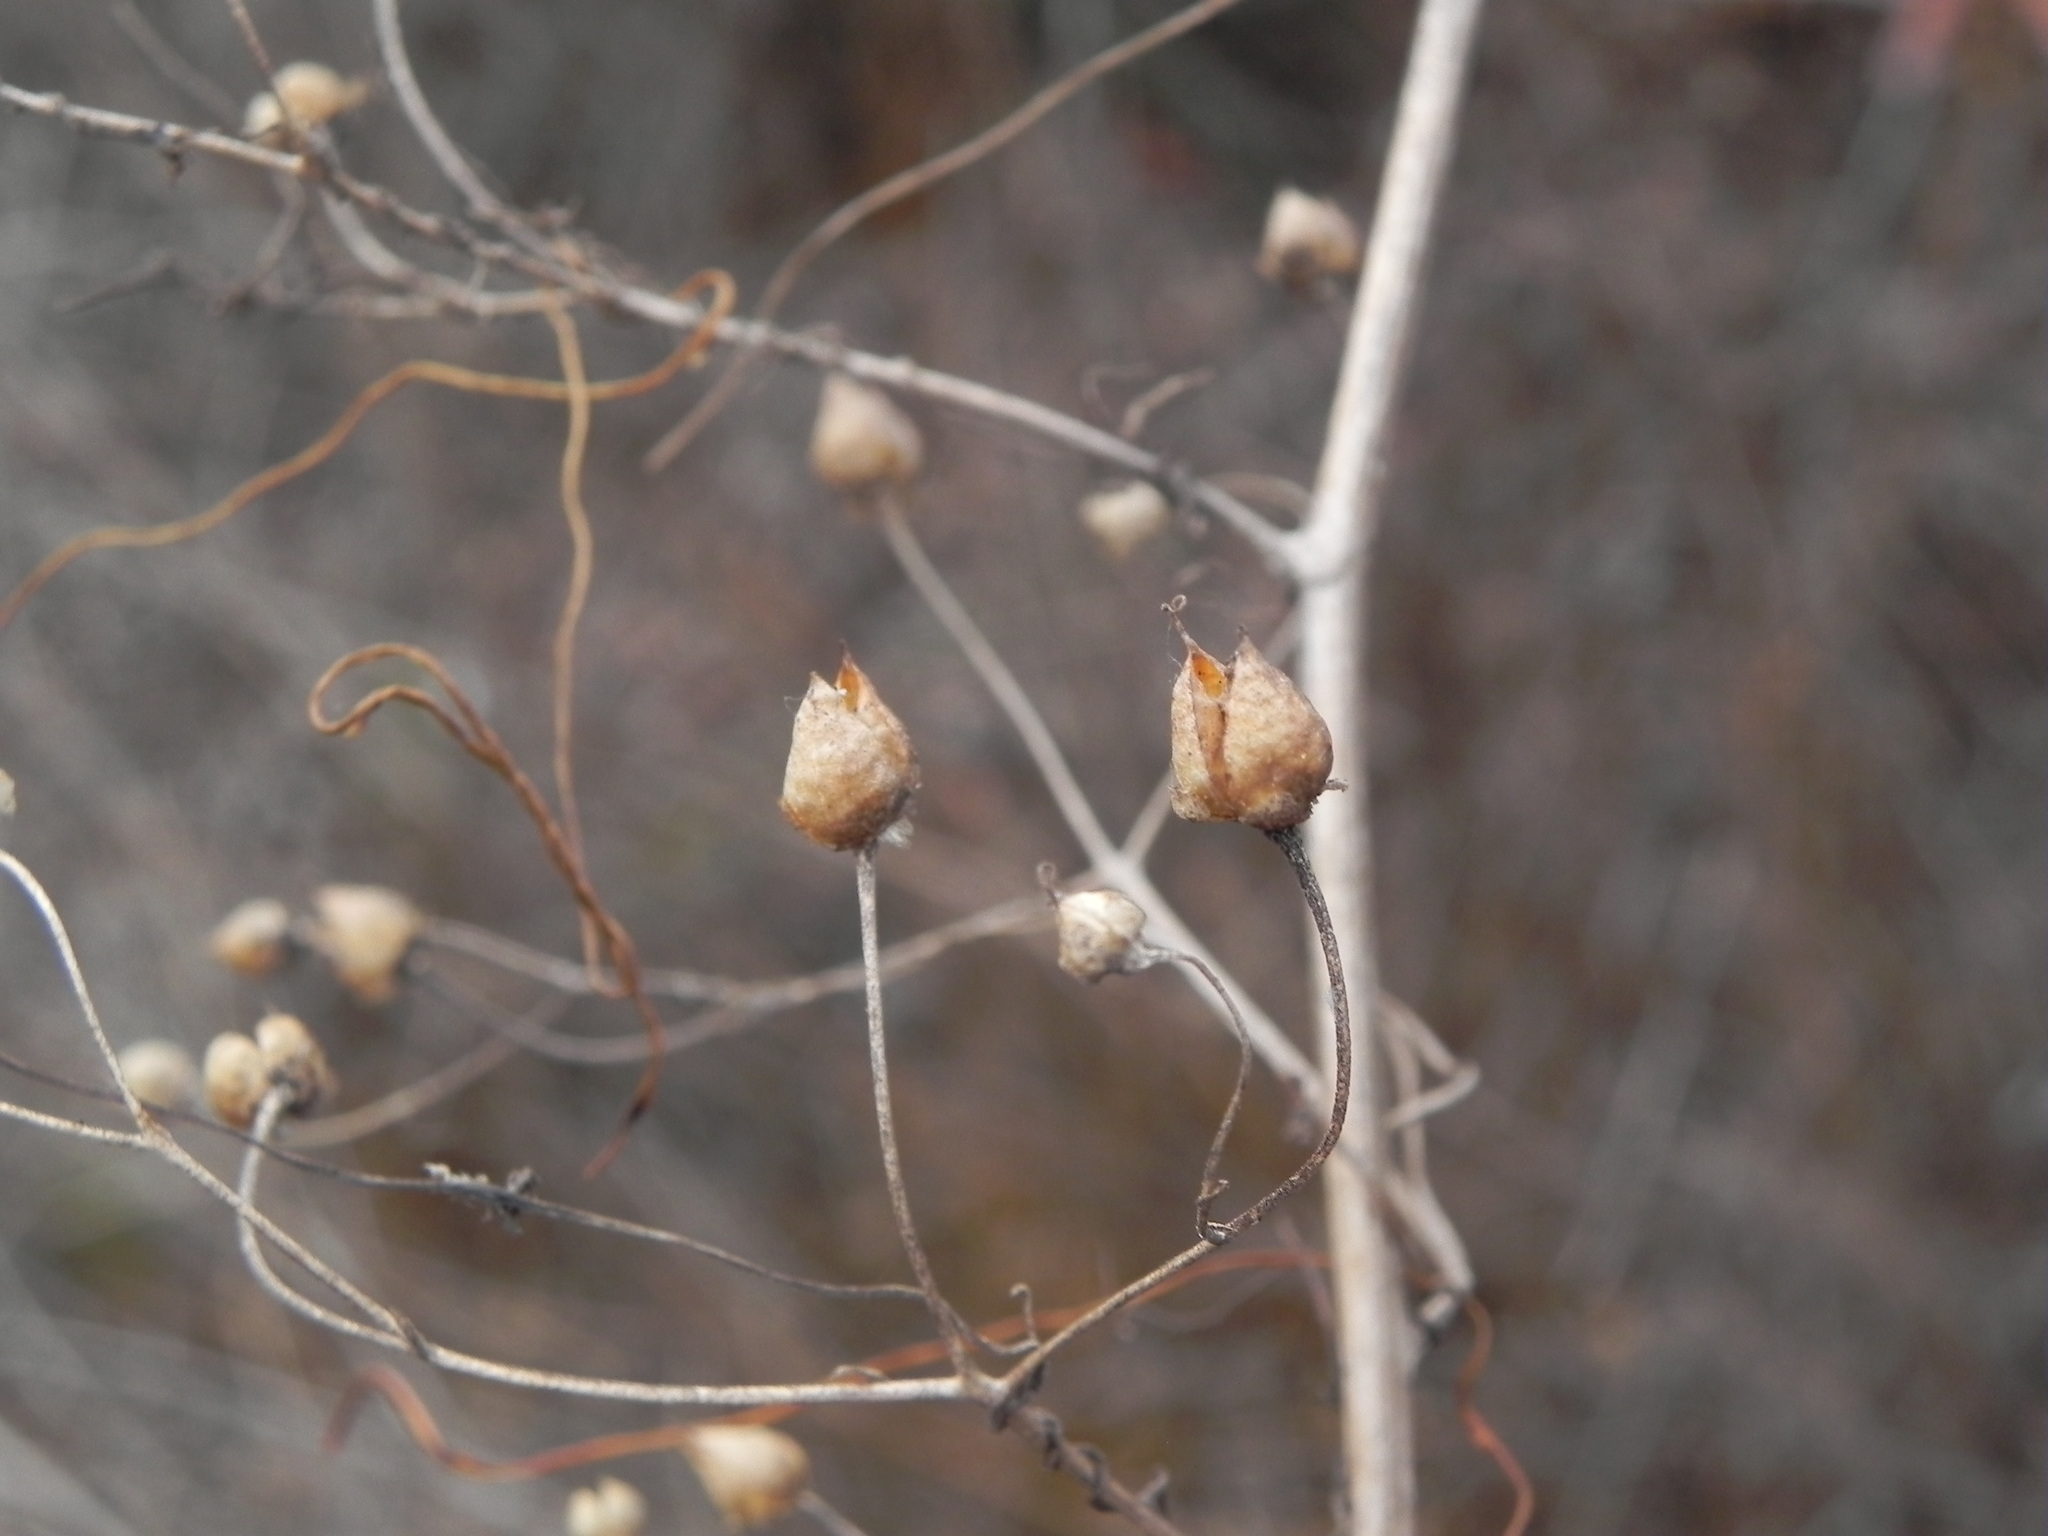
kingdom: Plantae
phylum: Tracheophyta
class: Magnoliopsida
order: Lamiales
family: Scrophulariaceae
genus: Scrophularia
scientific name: Scrophularia californica
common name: California figwort
